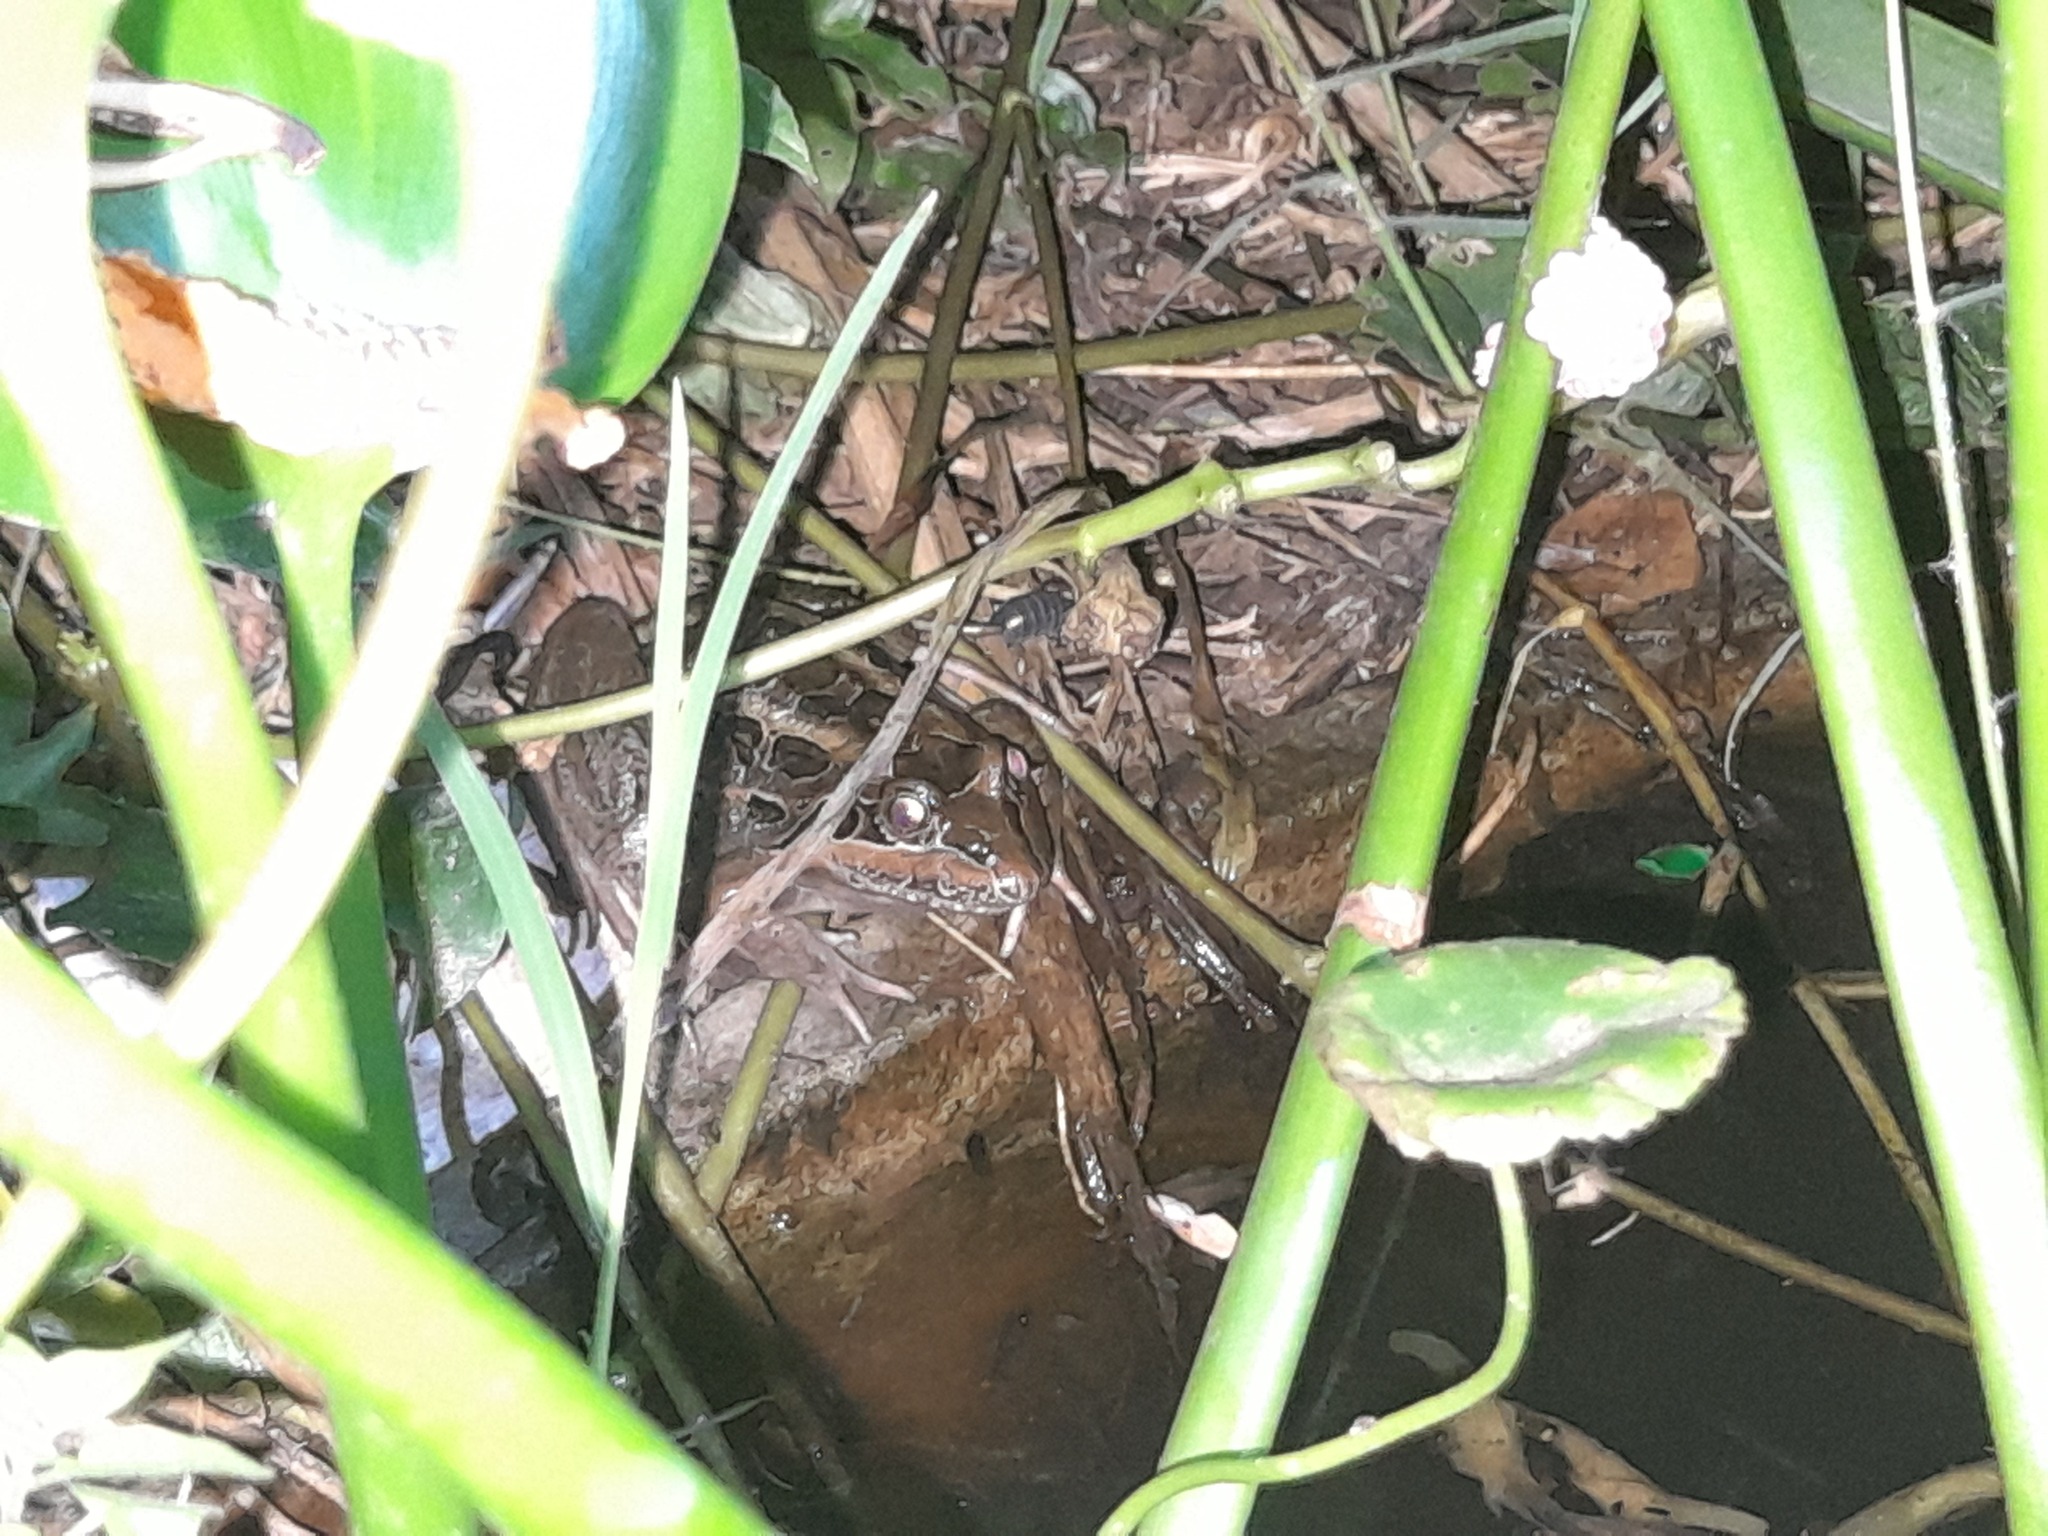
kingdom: Animalia
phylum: Chordata
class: Amphibia
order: Anura
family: Leptodactylidae
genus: Leptodactylus
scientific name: Leptodactylus luctator
